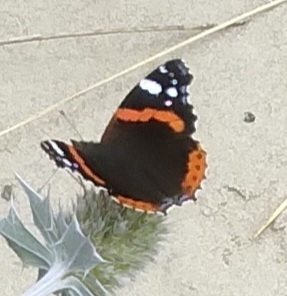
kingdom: Animalia
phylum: Arthropoda
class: Insecta
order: Lepidoptera
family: Nymphalidae
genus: Vanessa
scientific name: Vanessa atalanta
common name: Red admiral
